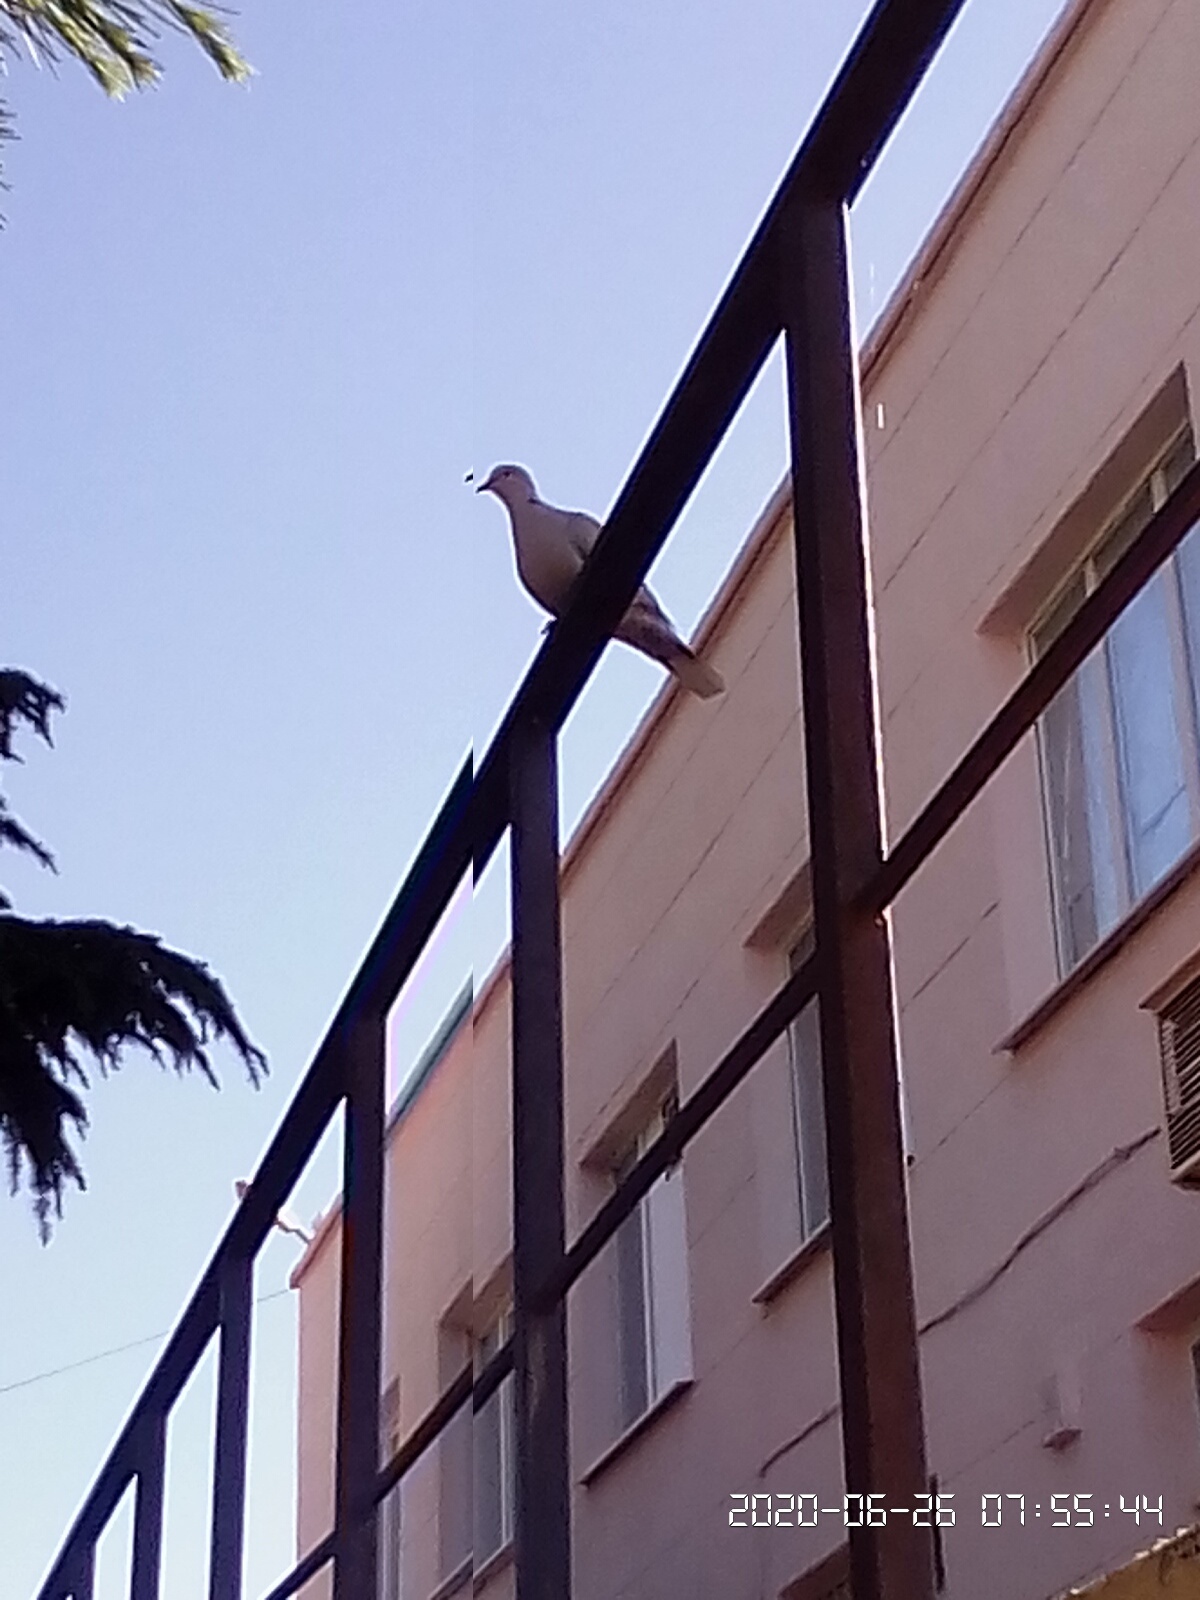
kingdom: Animalia
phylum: Chordata
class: Aves
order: Columbiformes
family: Columbidae
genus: Streptopelia
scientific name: Streptopelia decaocto
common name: Eurasian collared dove
